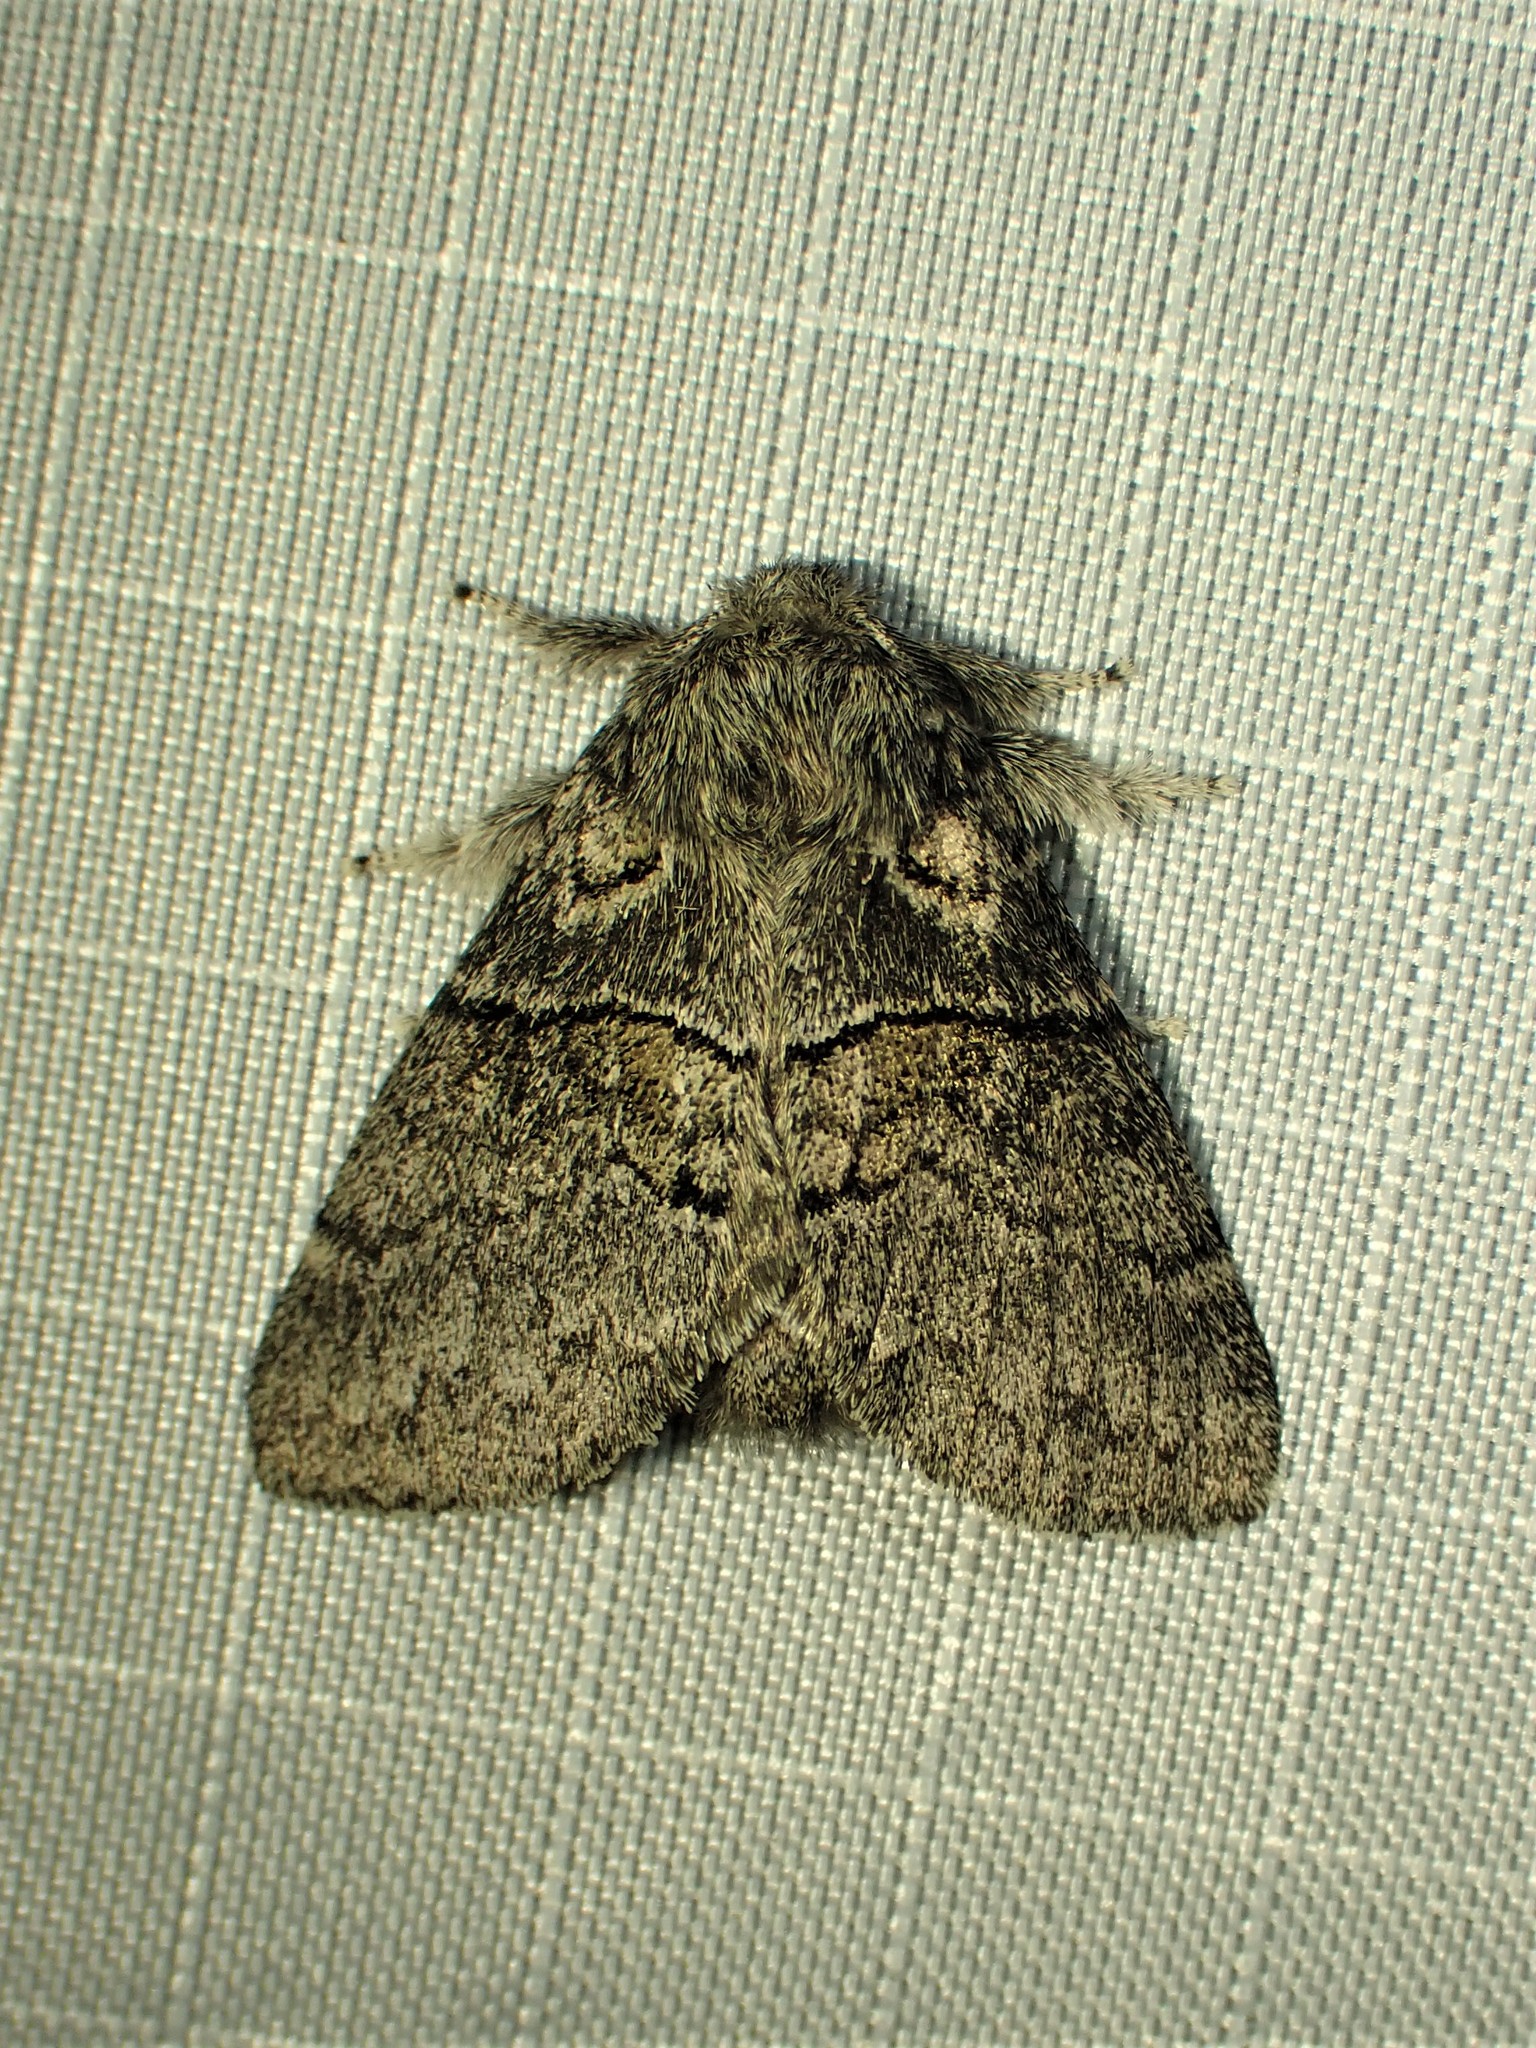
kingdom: Animalia
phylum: Arthropoda
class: Insecta
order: Lepidoptera
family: Notodontidae
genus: Gluphisia
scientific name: Gluphisia septentrionis
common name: Common gluphisia
